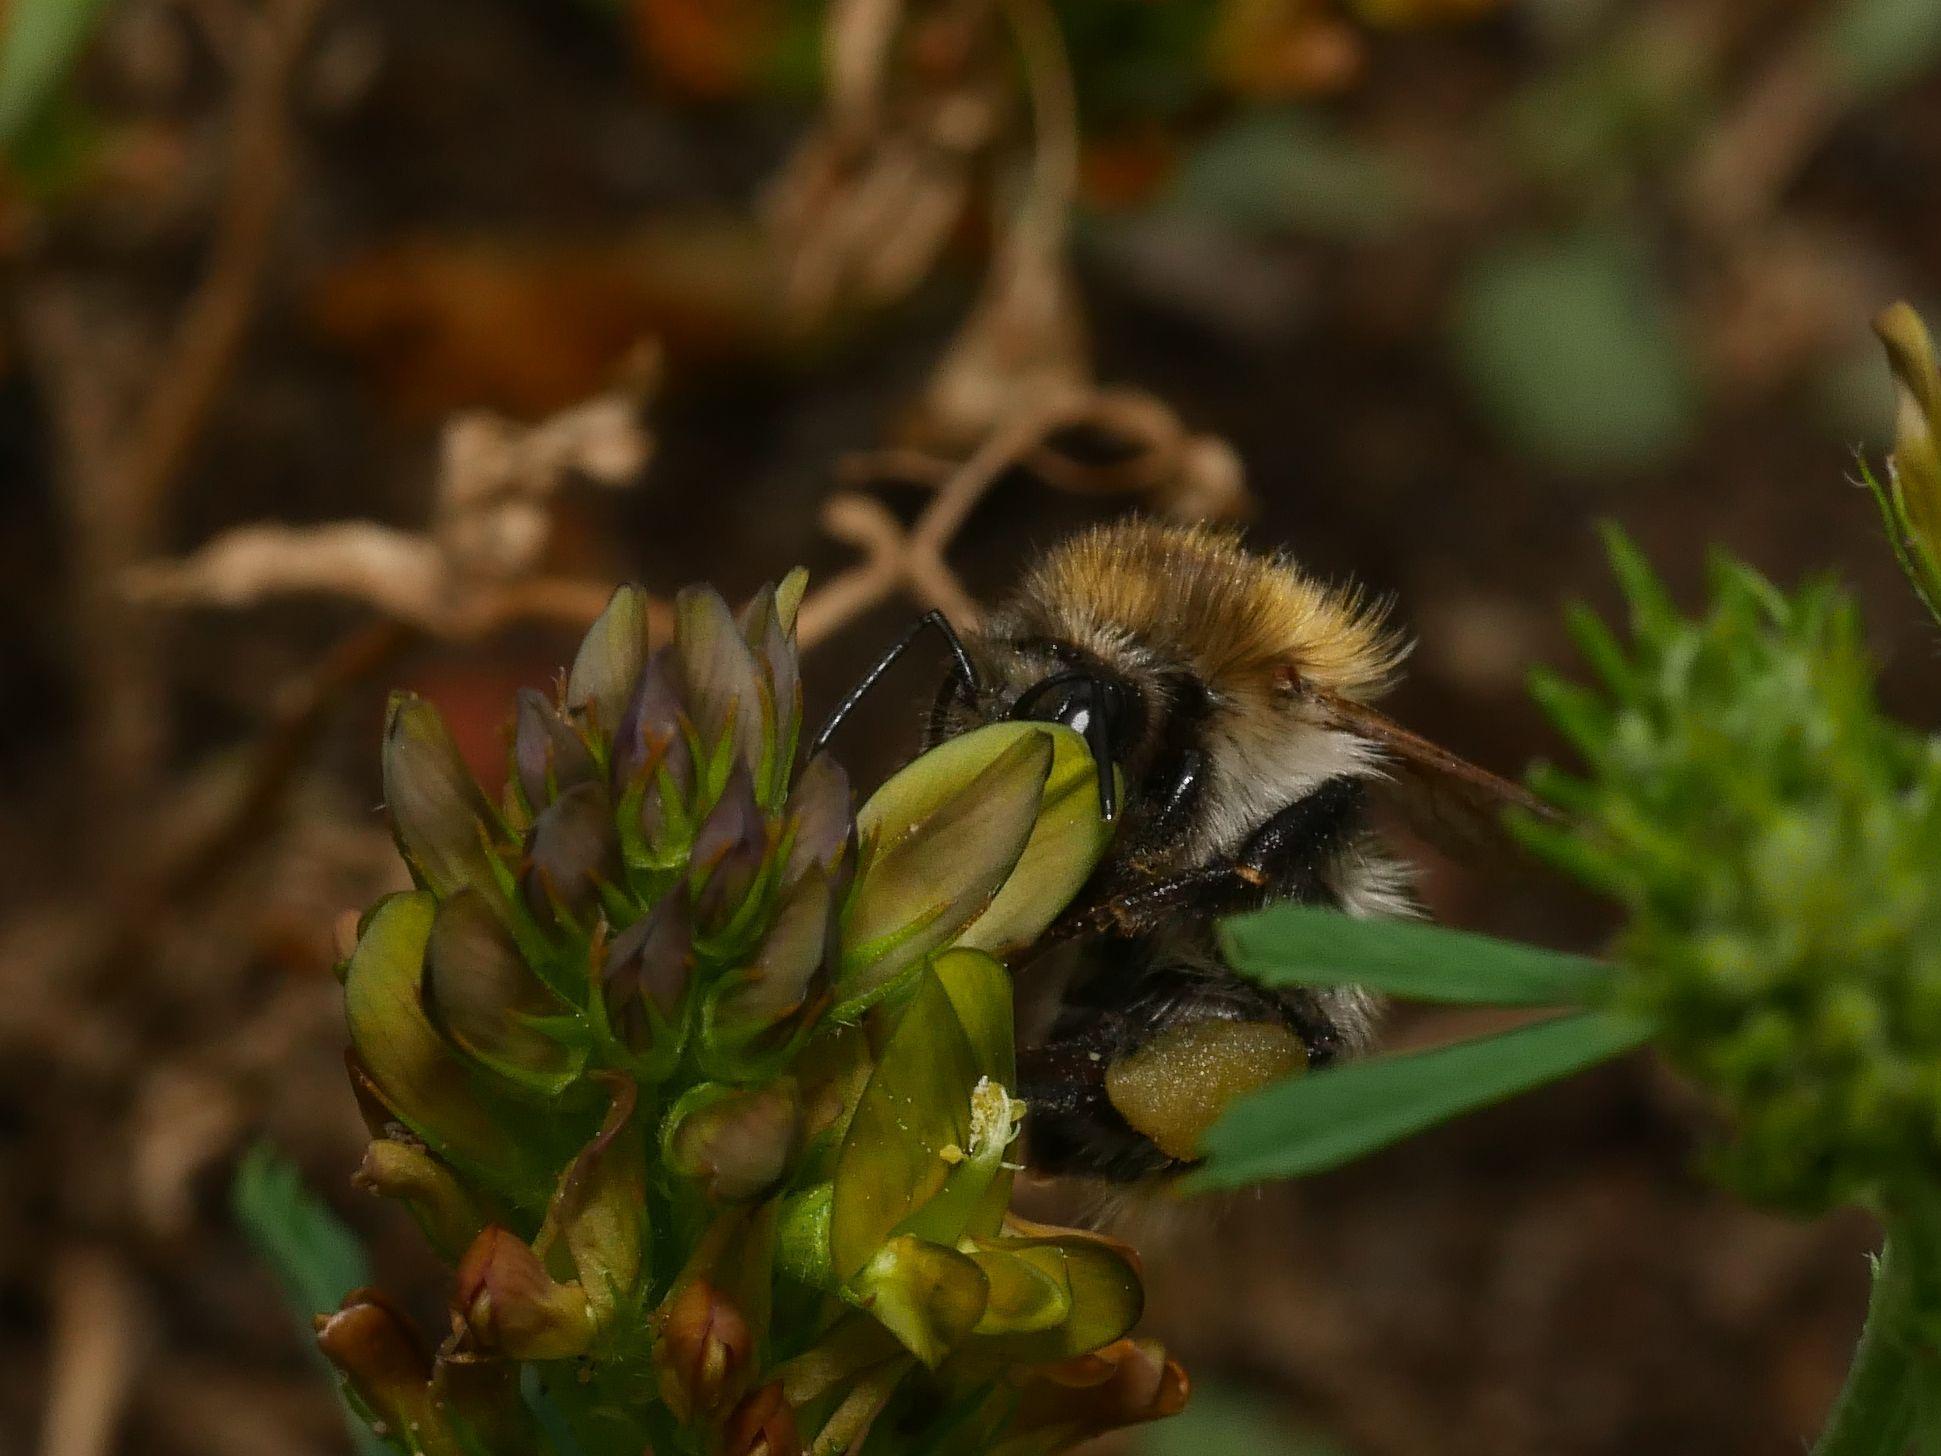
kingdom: Animalia
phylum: Arthropoda
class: Insecta
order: Hymenoptera
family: Apidae
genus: Bombus
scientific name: Bombus pascuorum
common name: Common carder bee
